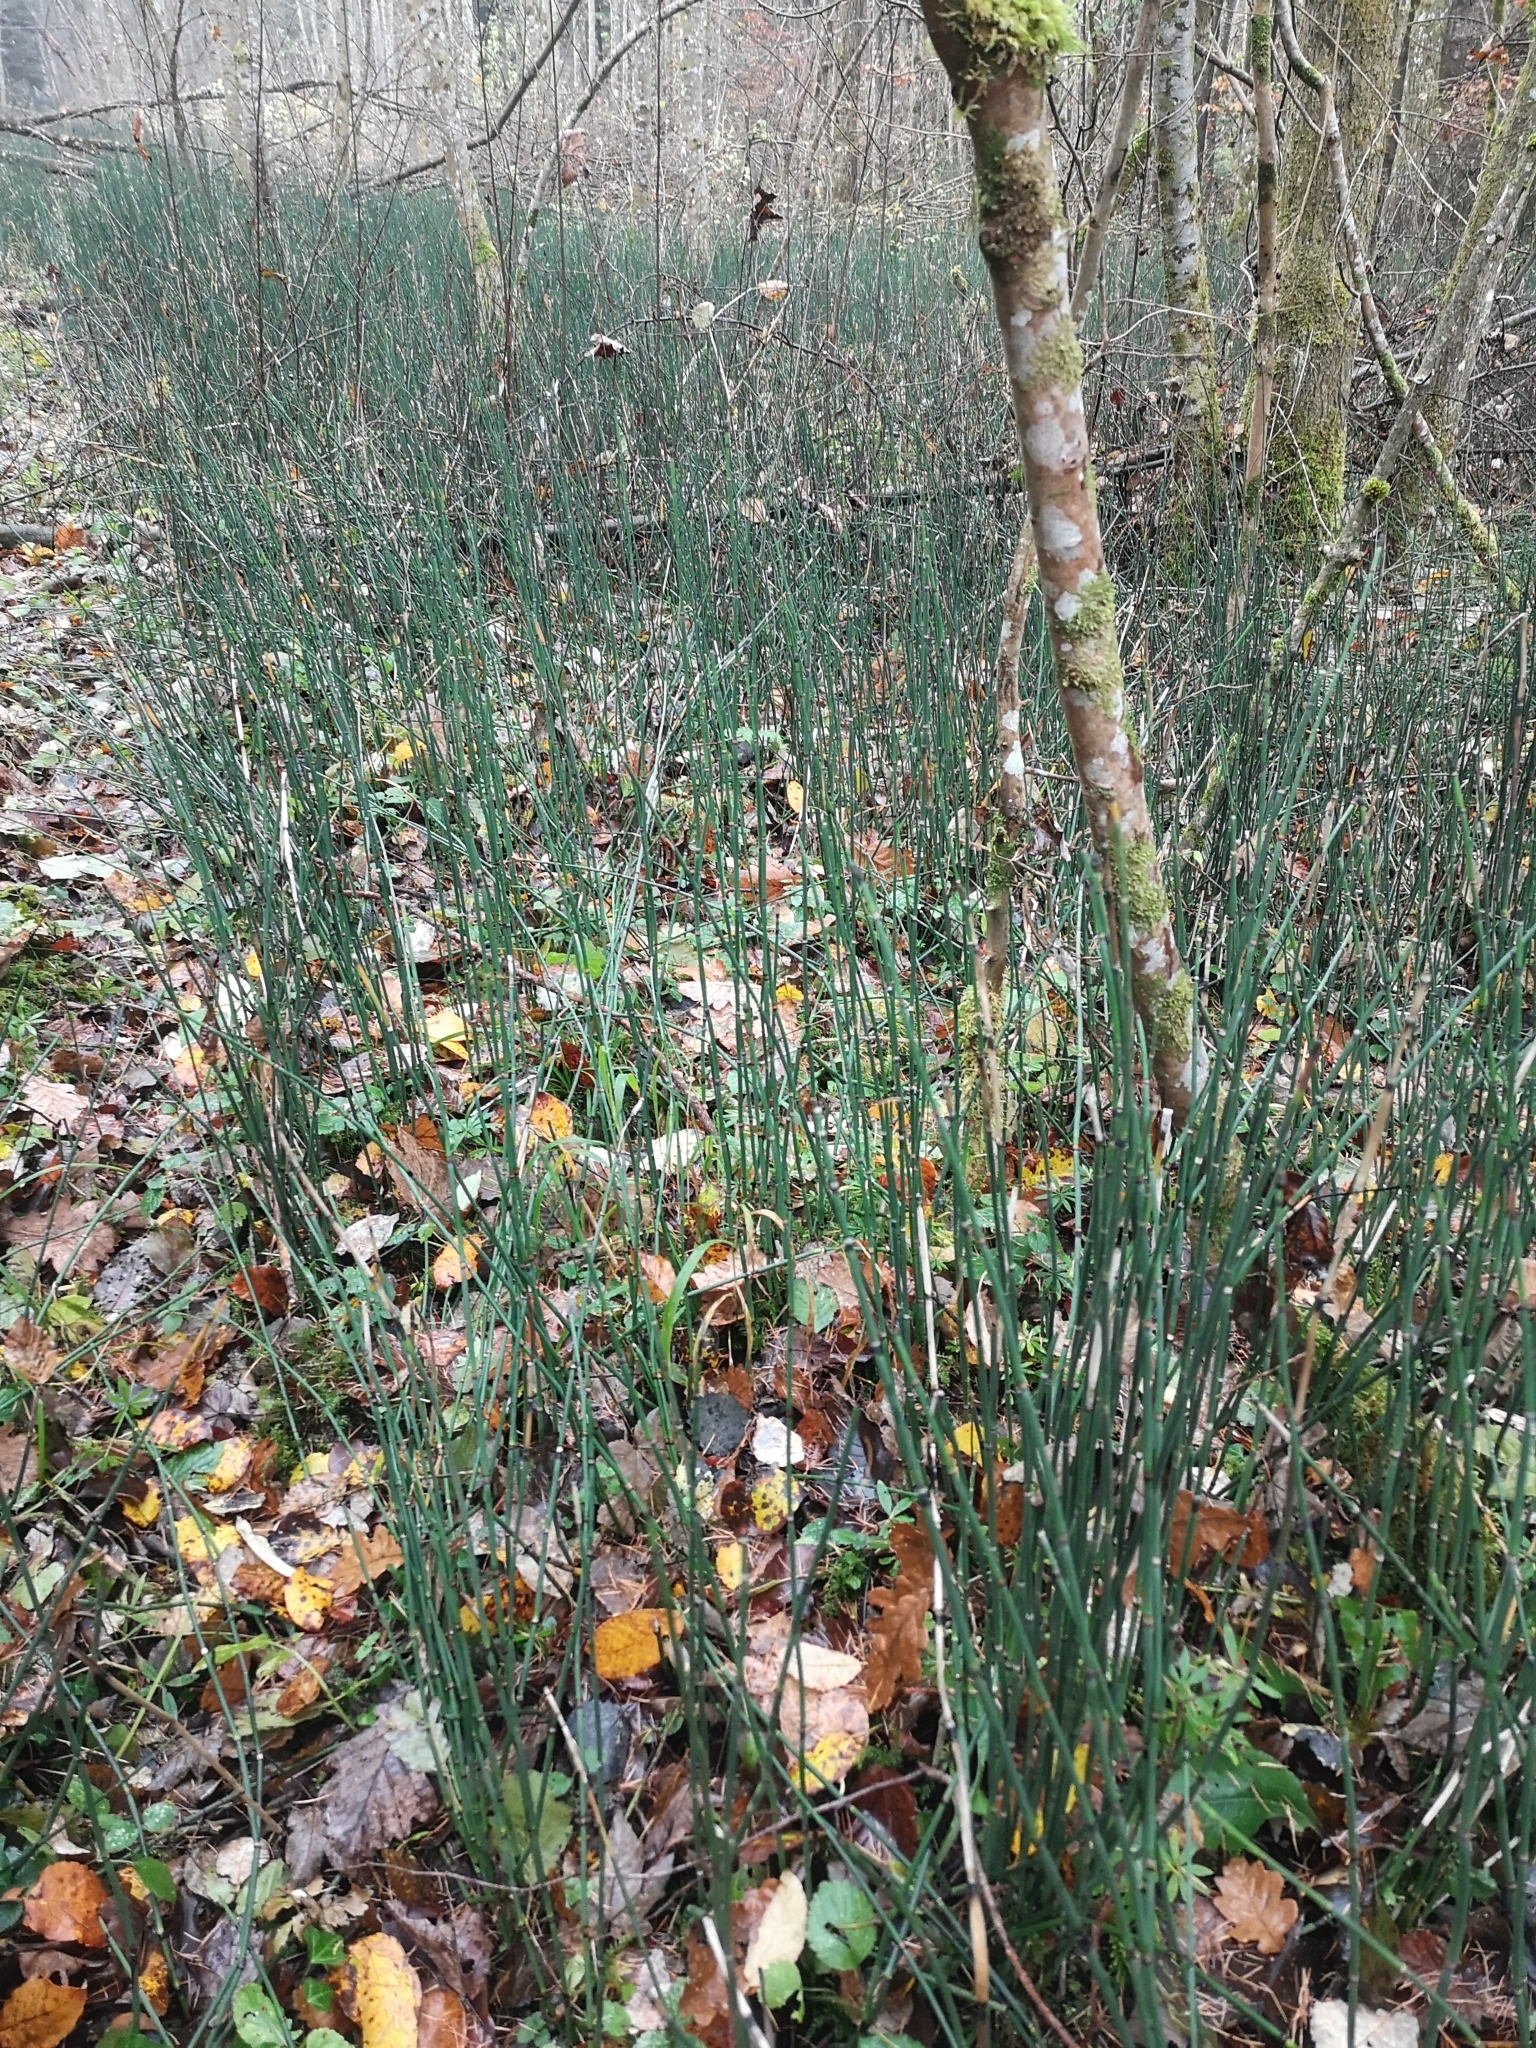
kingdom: Plantae
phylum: Tracheophyta
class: Polypodiopsida
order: Equisetales
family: Equisetaceae
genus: Equisetum
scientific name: Equisetum hyemale
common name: Rough horsetail
